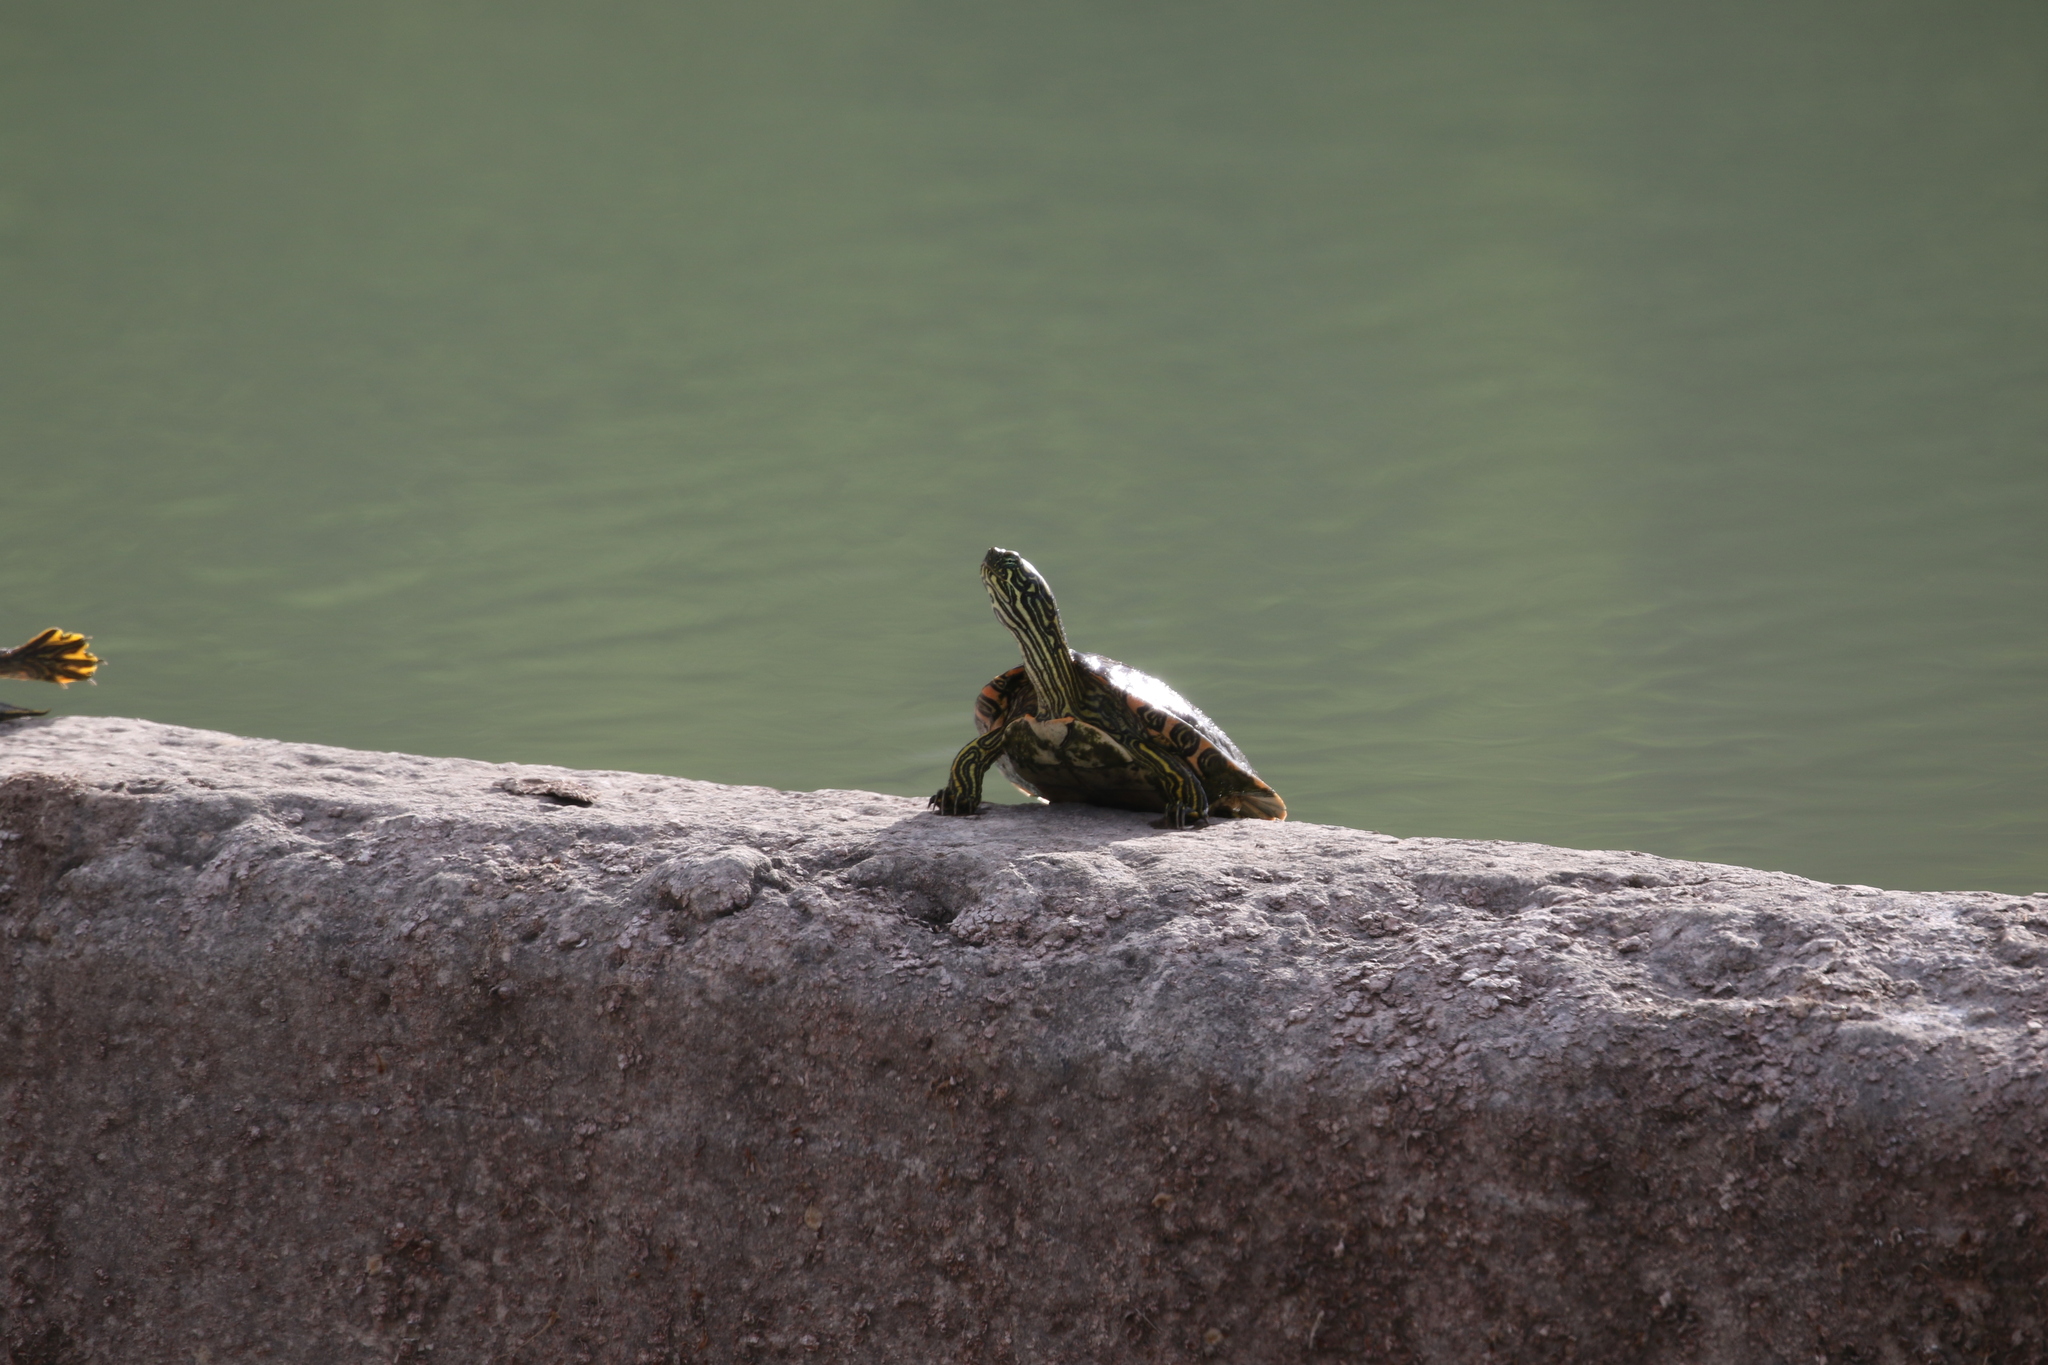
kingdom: Animalia
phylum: Chordata
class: Testudines
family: Emydidae
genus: Pseudemys
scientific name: Pseudemys texana
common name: Texas river cooter
